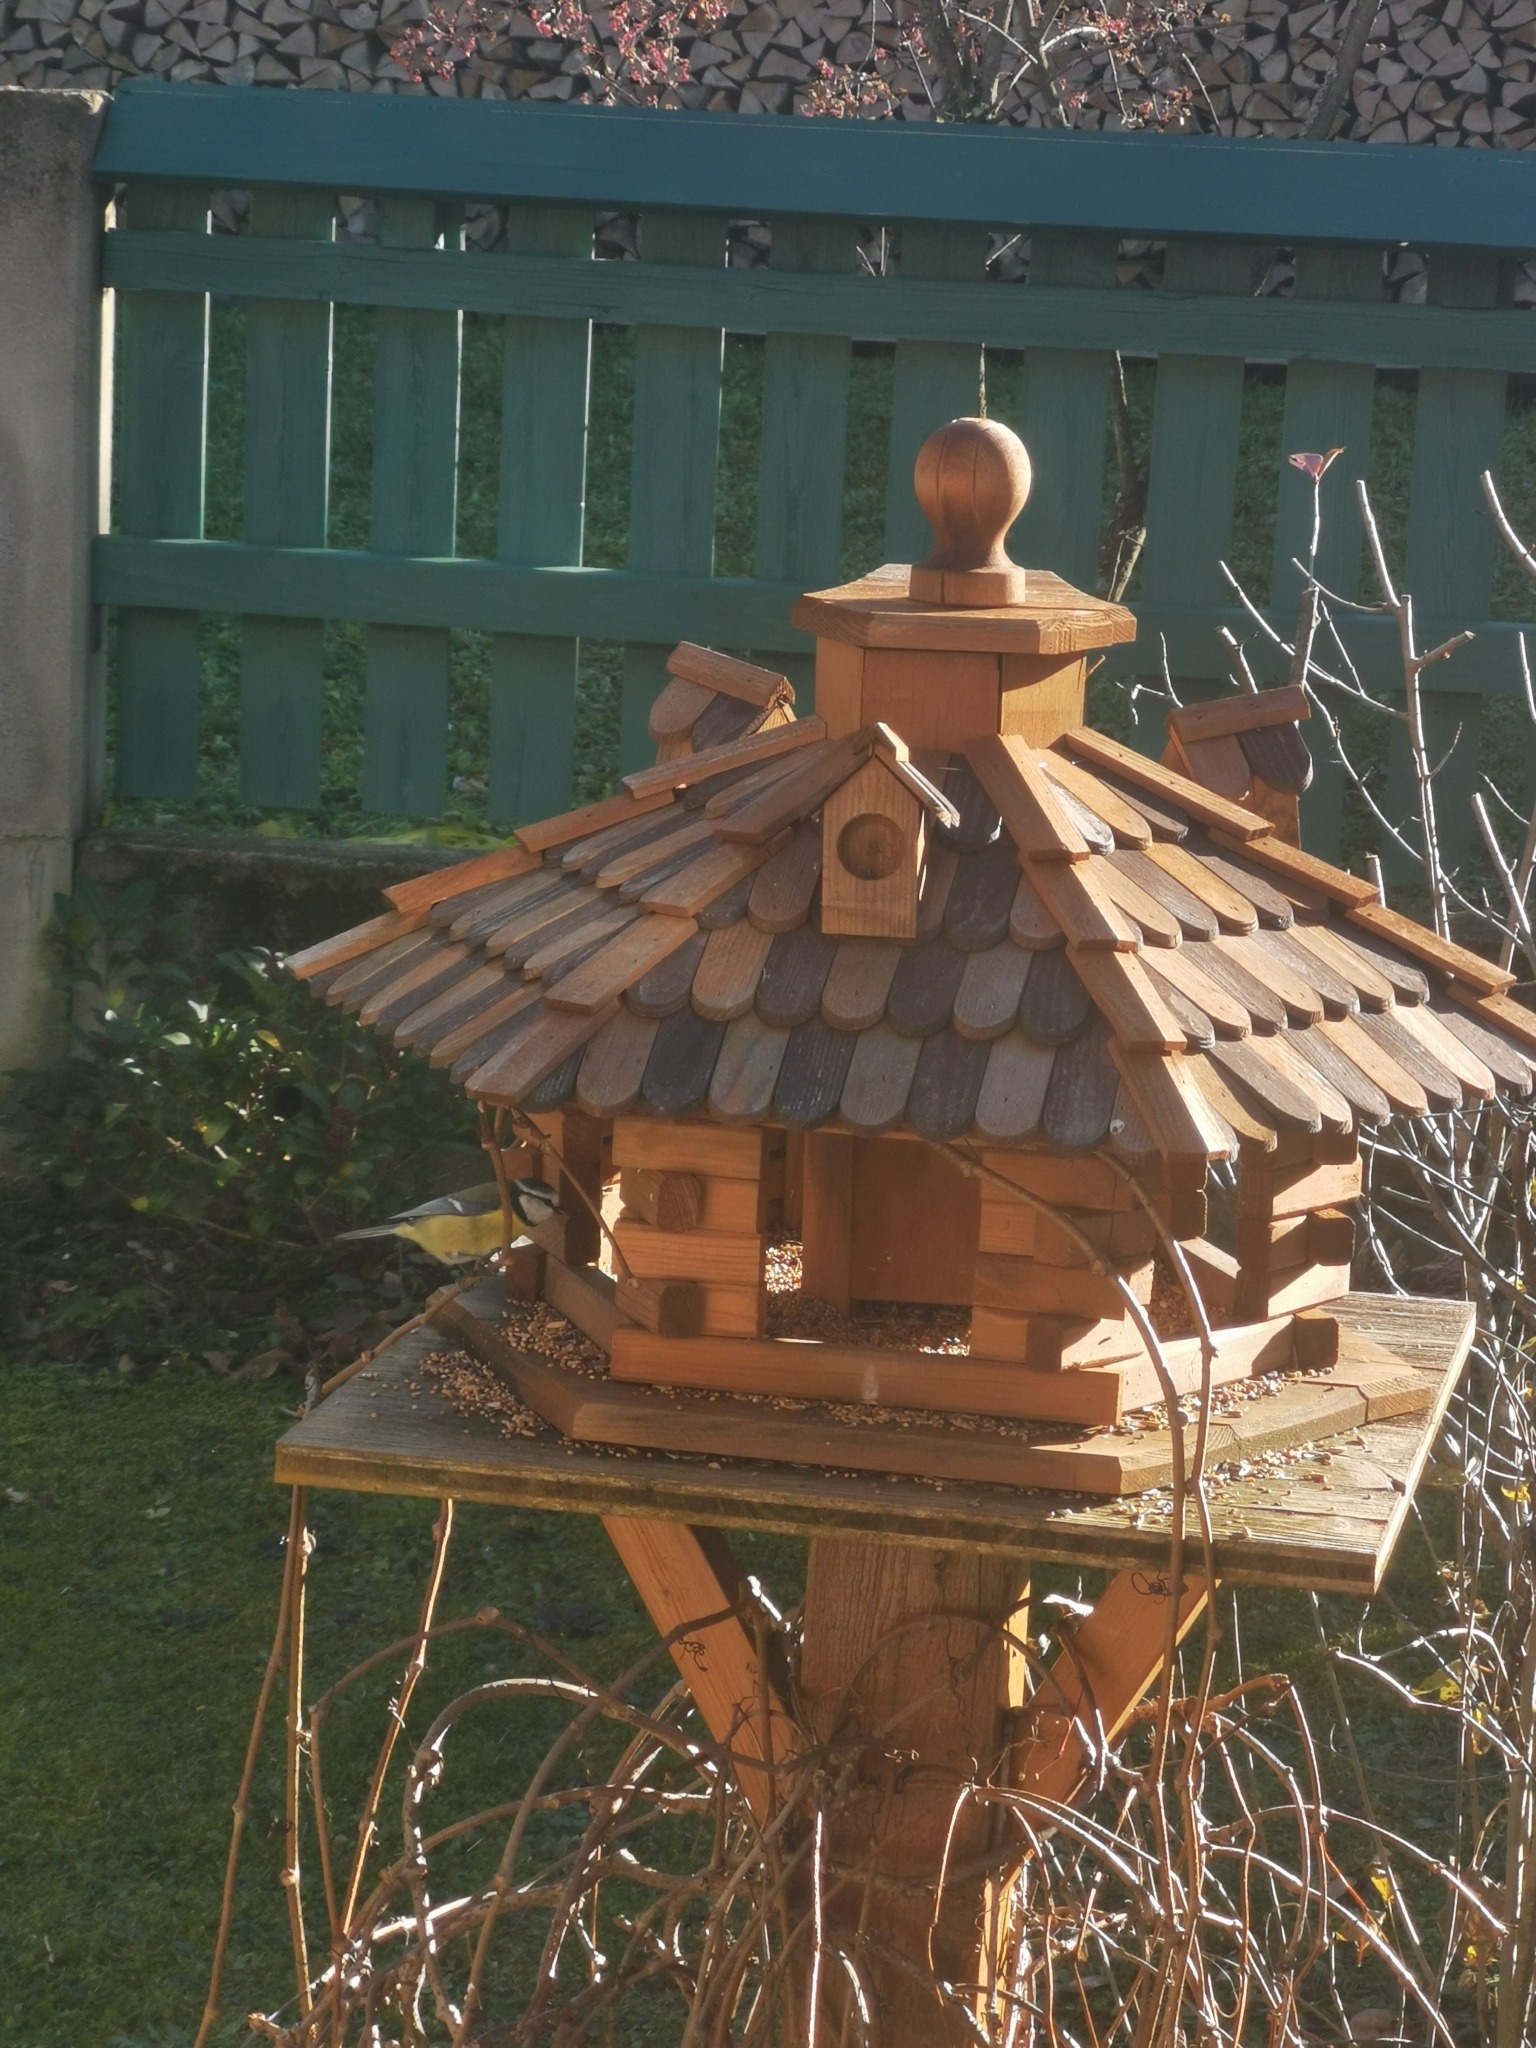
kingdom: Animalia
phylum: Chordata
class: Aves
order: Passeriformes
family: Paridae
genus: Cyanistes
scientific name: Cyanistes caeruleus
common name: Eurasian blue tit
